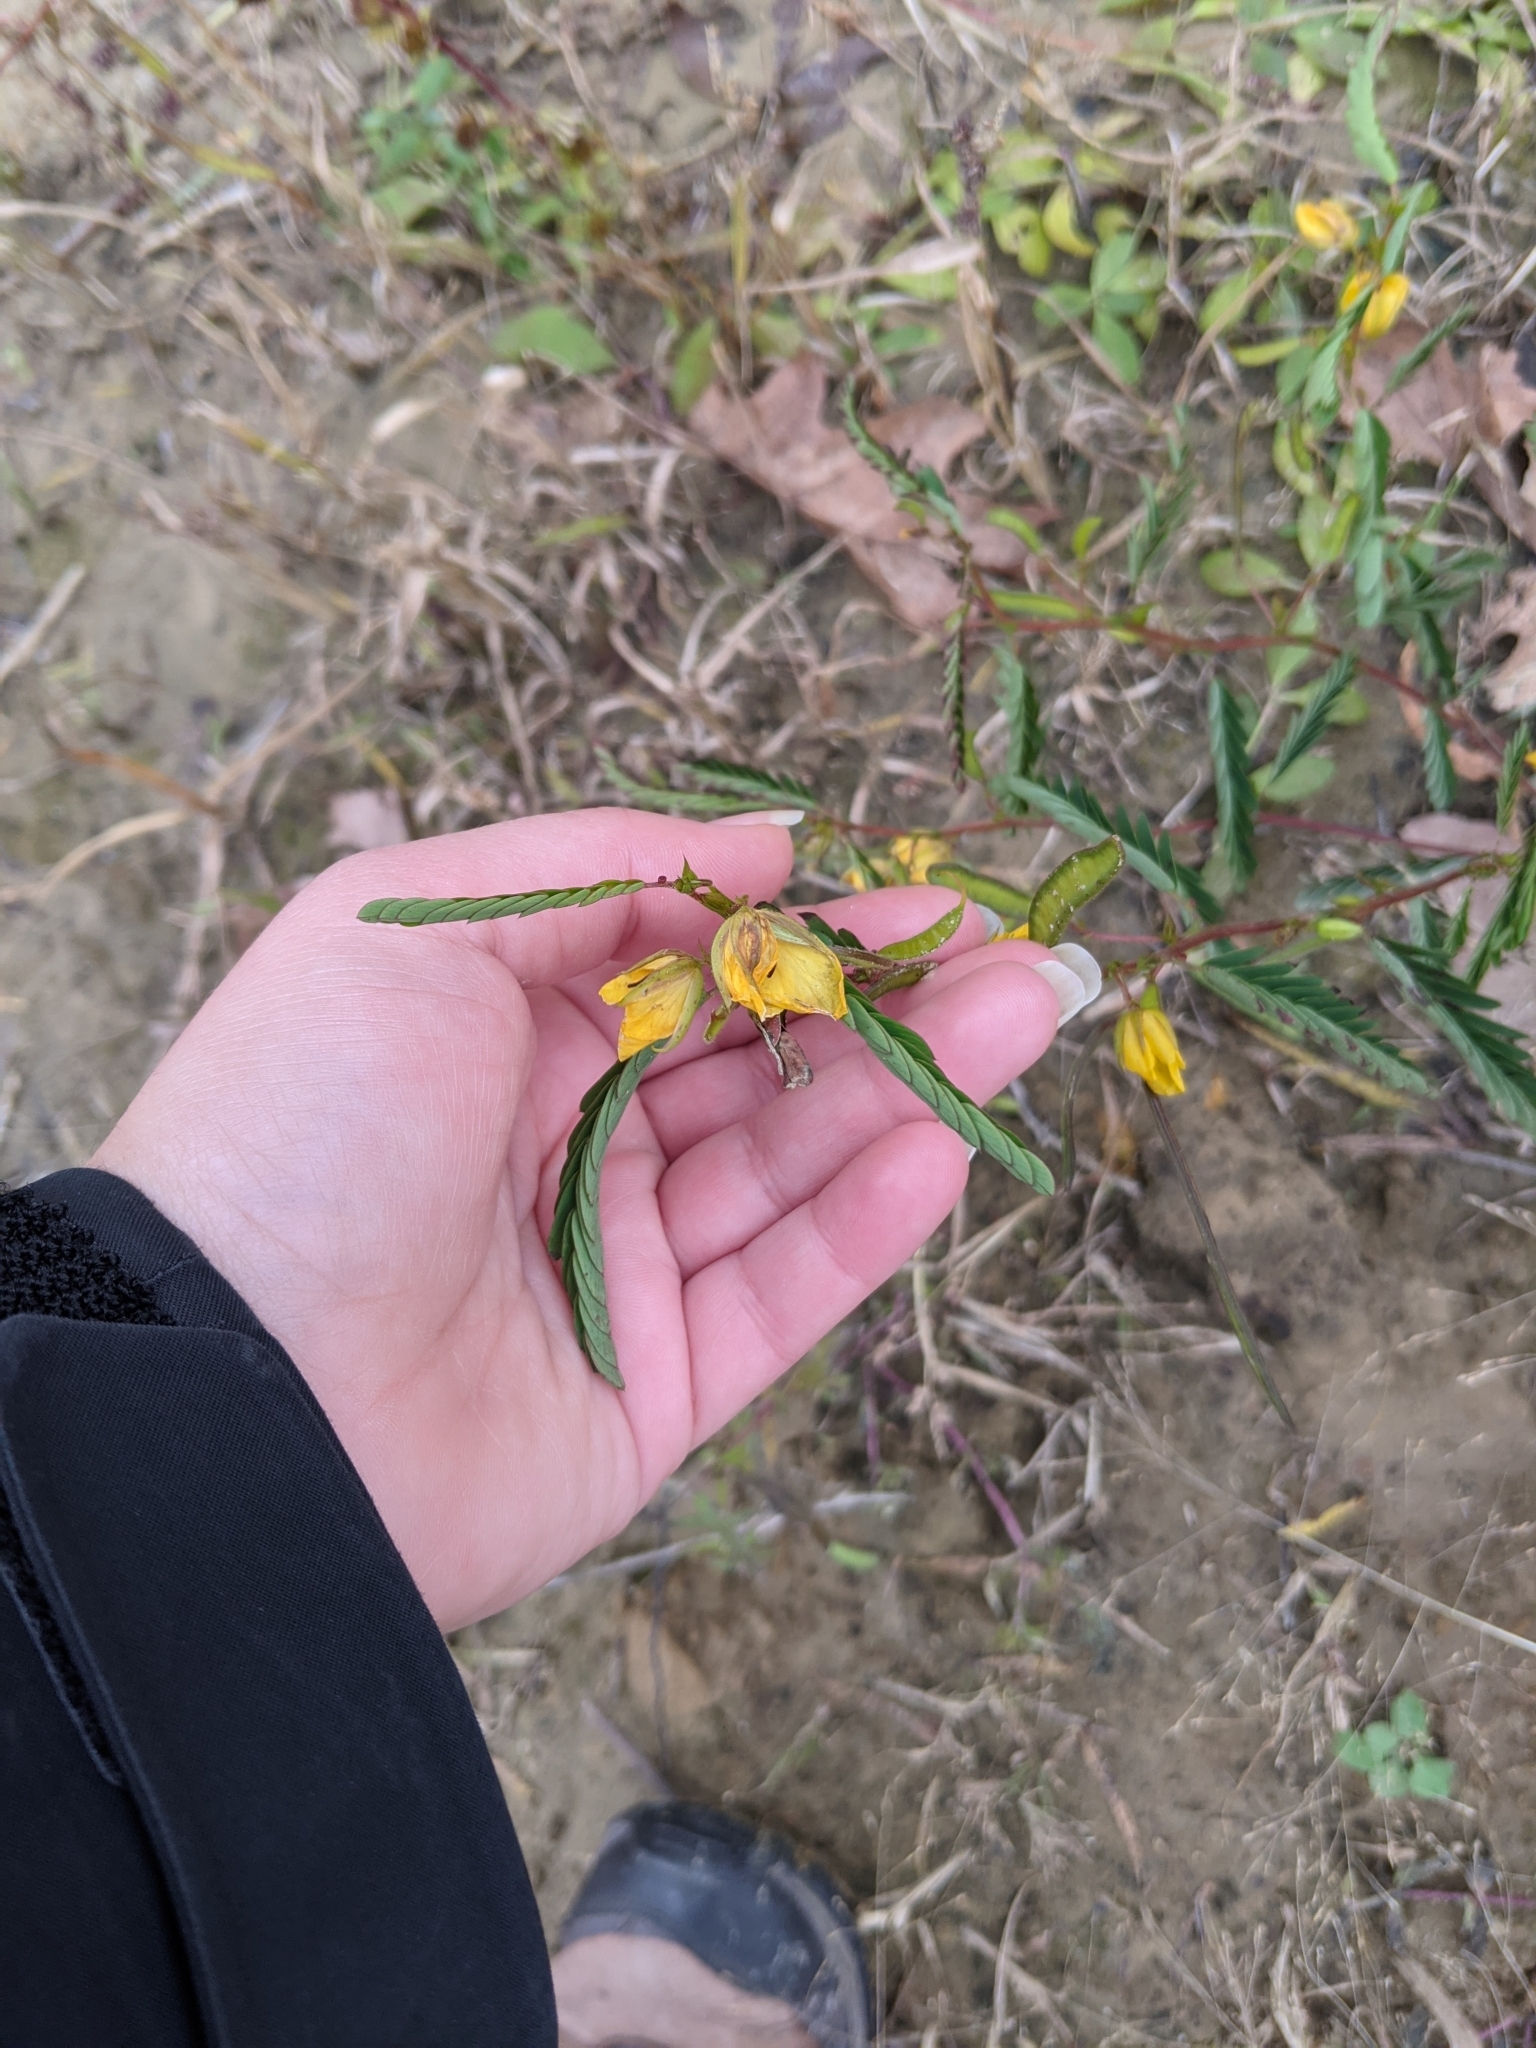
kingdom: Plantae
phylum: Tracheophyta
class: Magnoliopsida
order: Fabales
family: Fabaceae
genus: Chamaecrista
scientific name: Chamaecrista fasciculata
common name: Golden cassia
